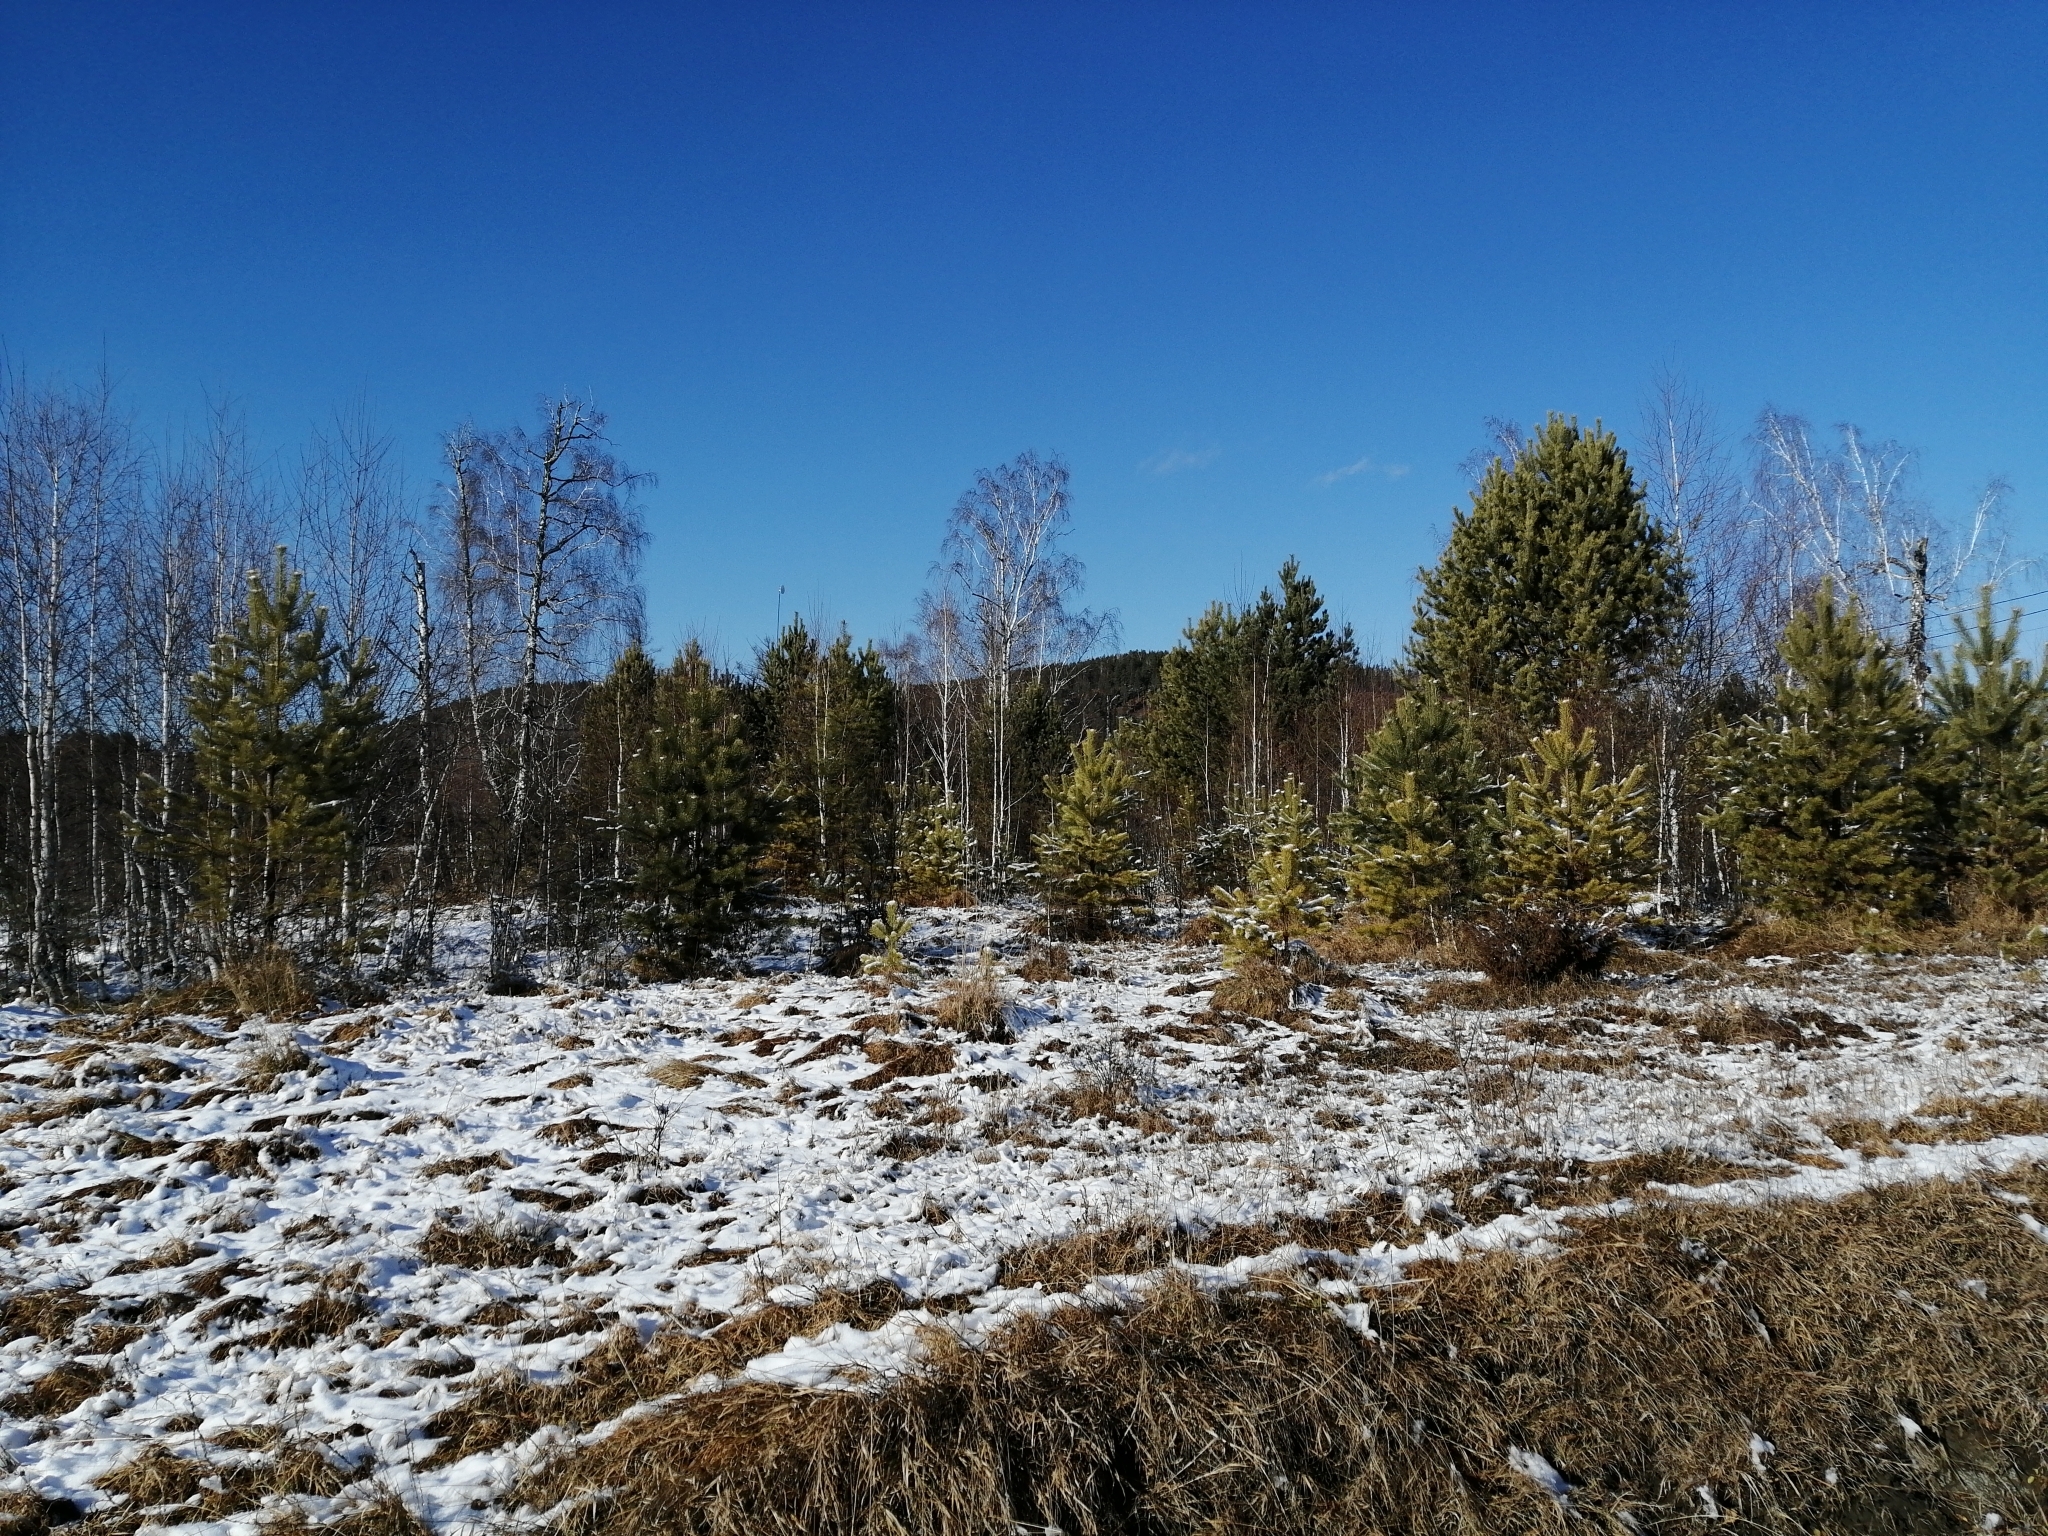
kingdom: Plantae
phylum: Tracheophyta
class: Pinopsida
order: Pinales
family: Pinaceae
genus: Pinus
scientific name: Pinus sylvestris
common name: Scots pine
